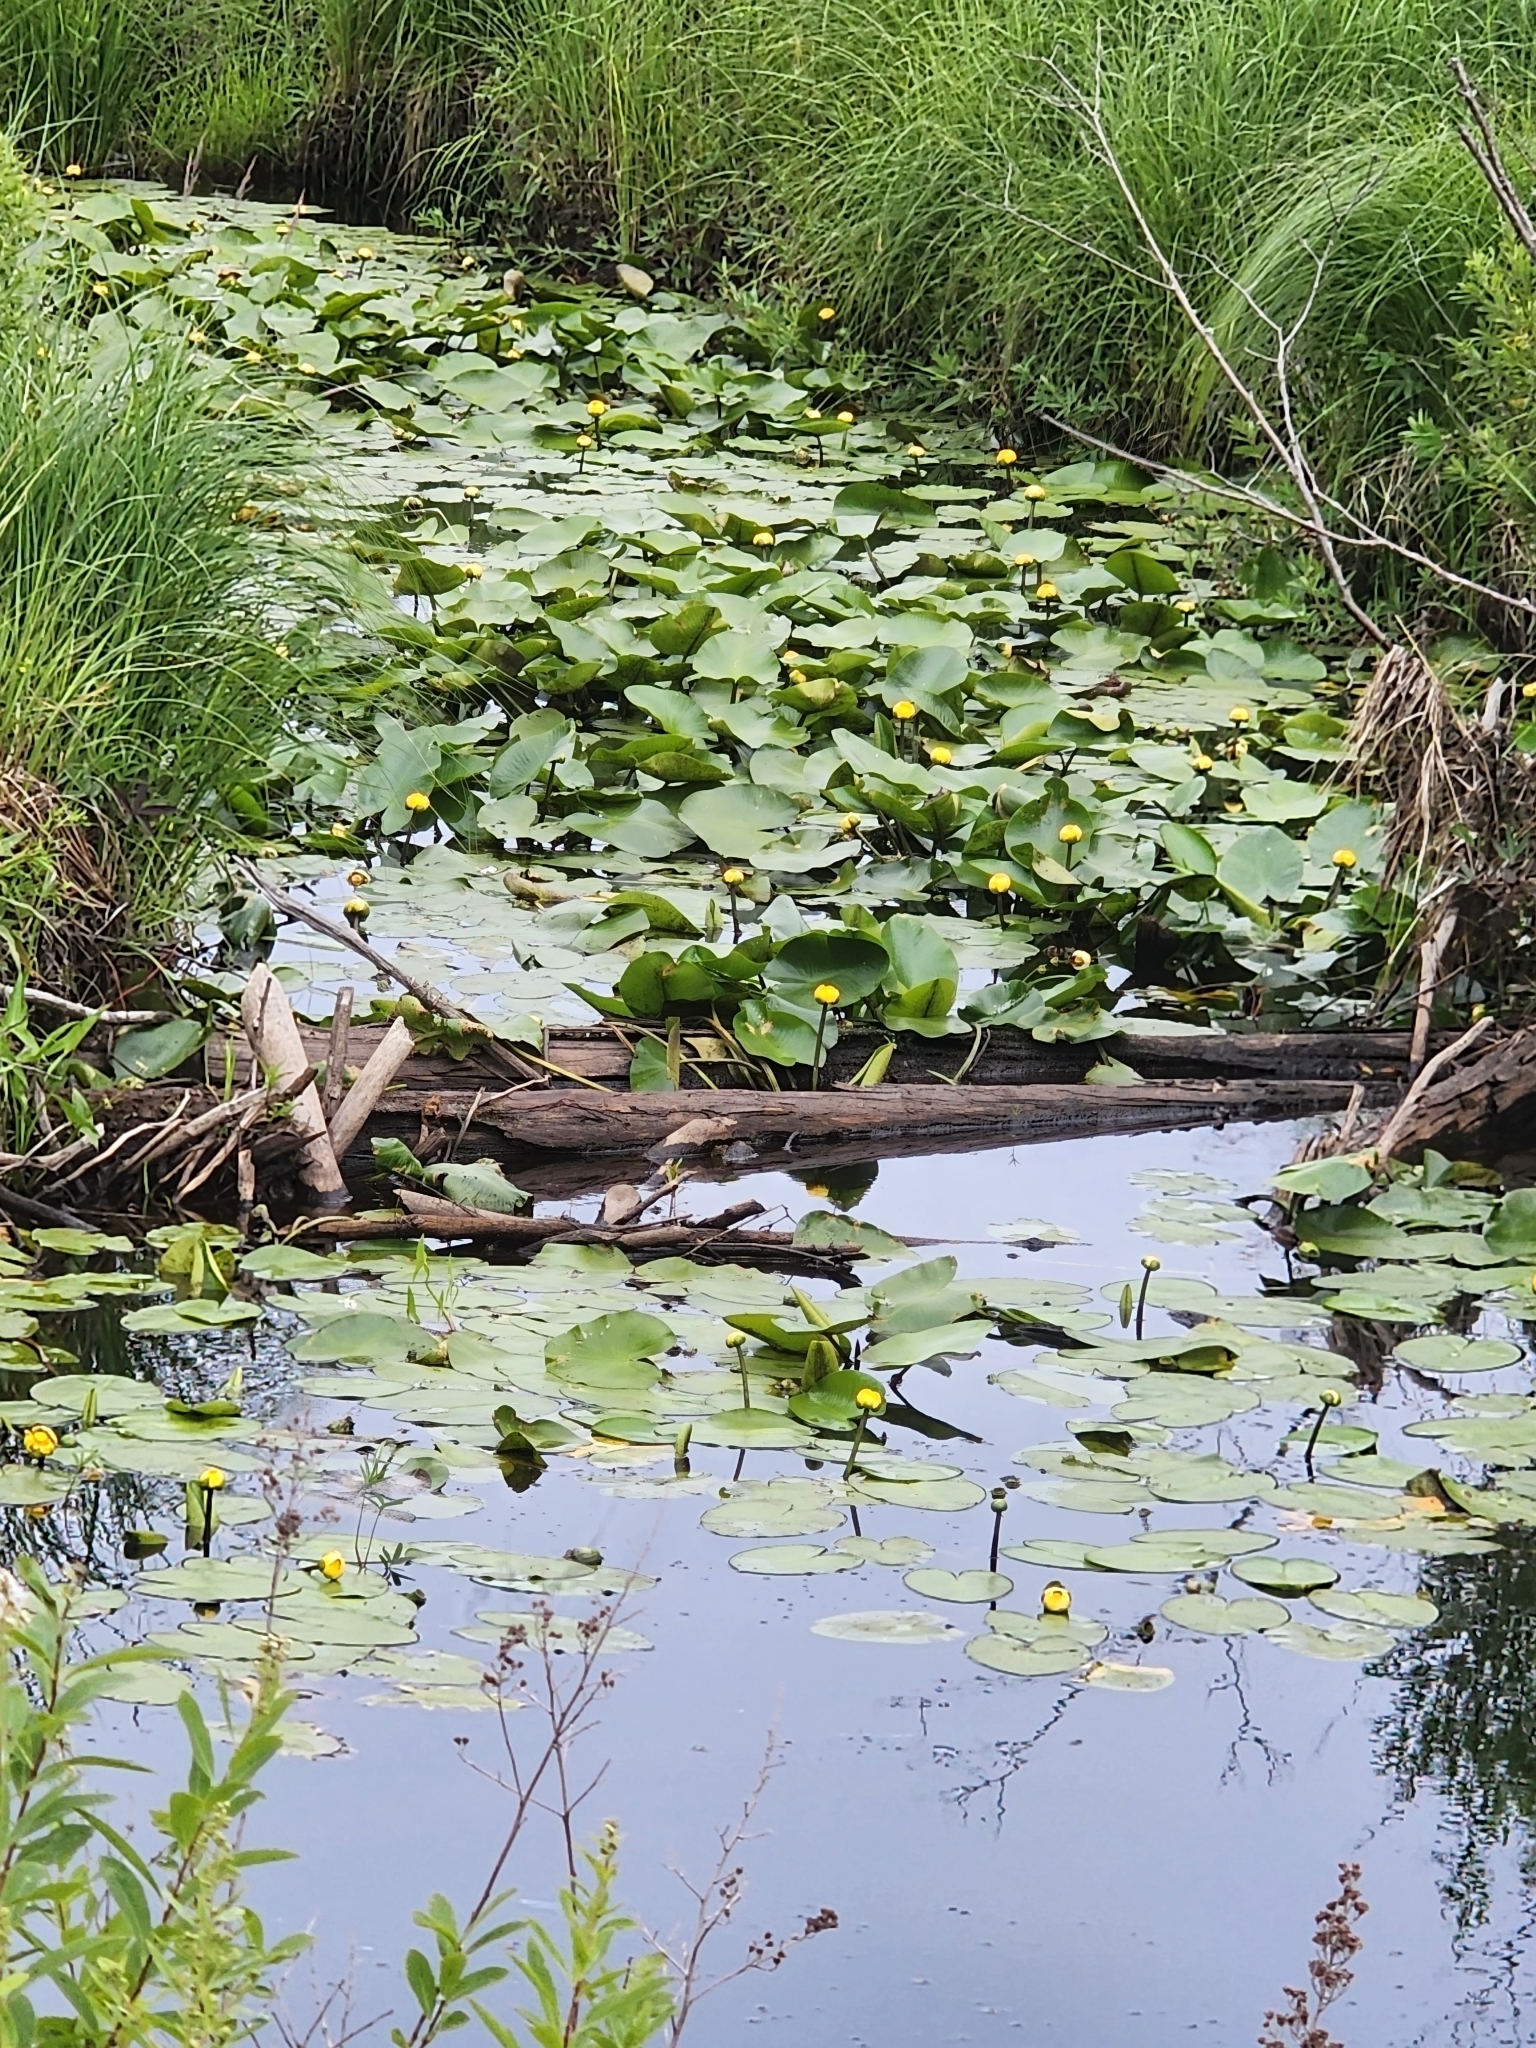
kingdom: Plantae
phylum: Tracheophyta
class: Magnoliopsida
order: Nymphaeales
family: Nymphaeaceae
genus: Nuphar
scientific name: Nuphar variegata
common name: Beaver-root
